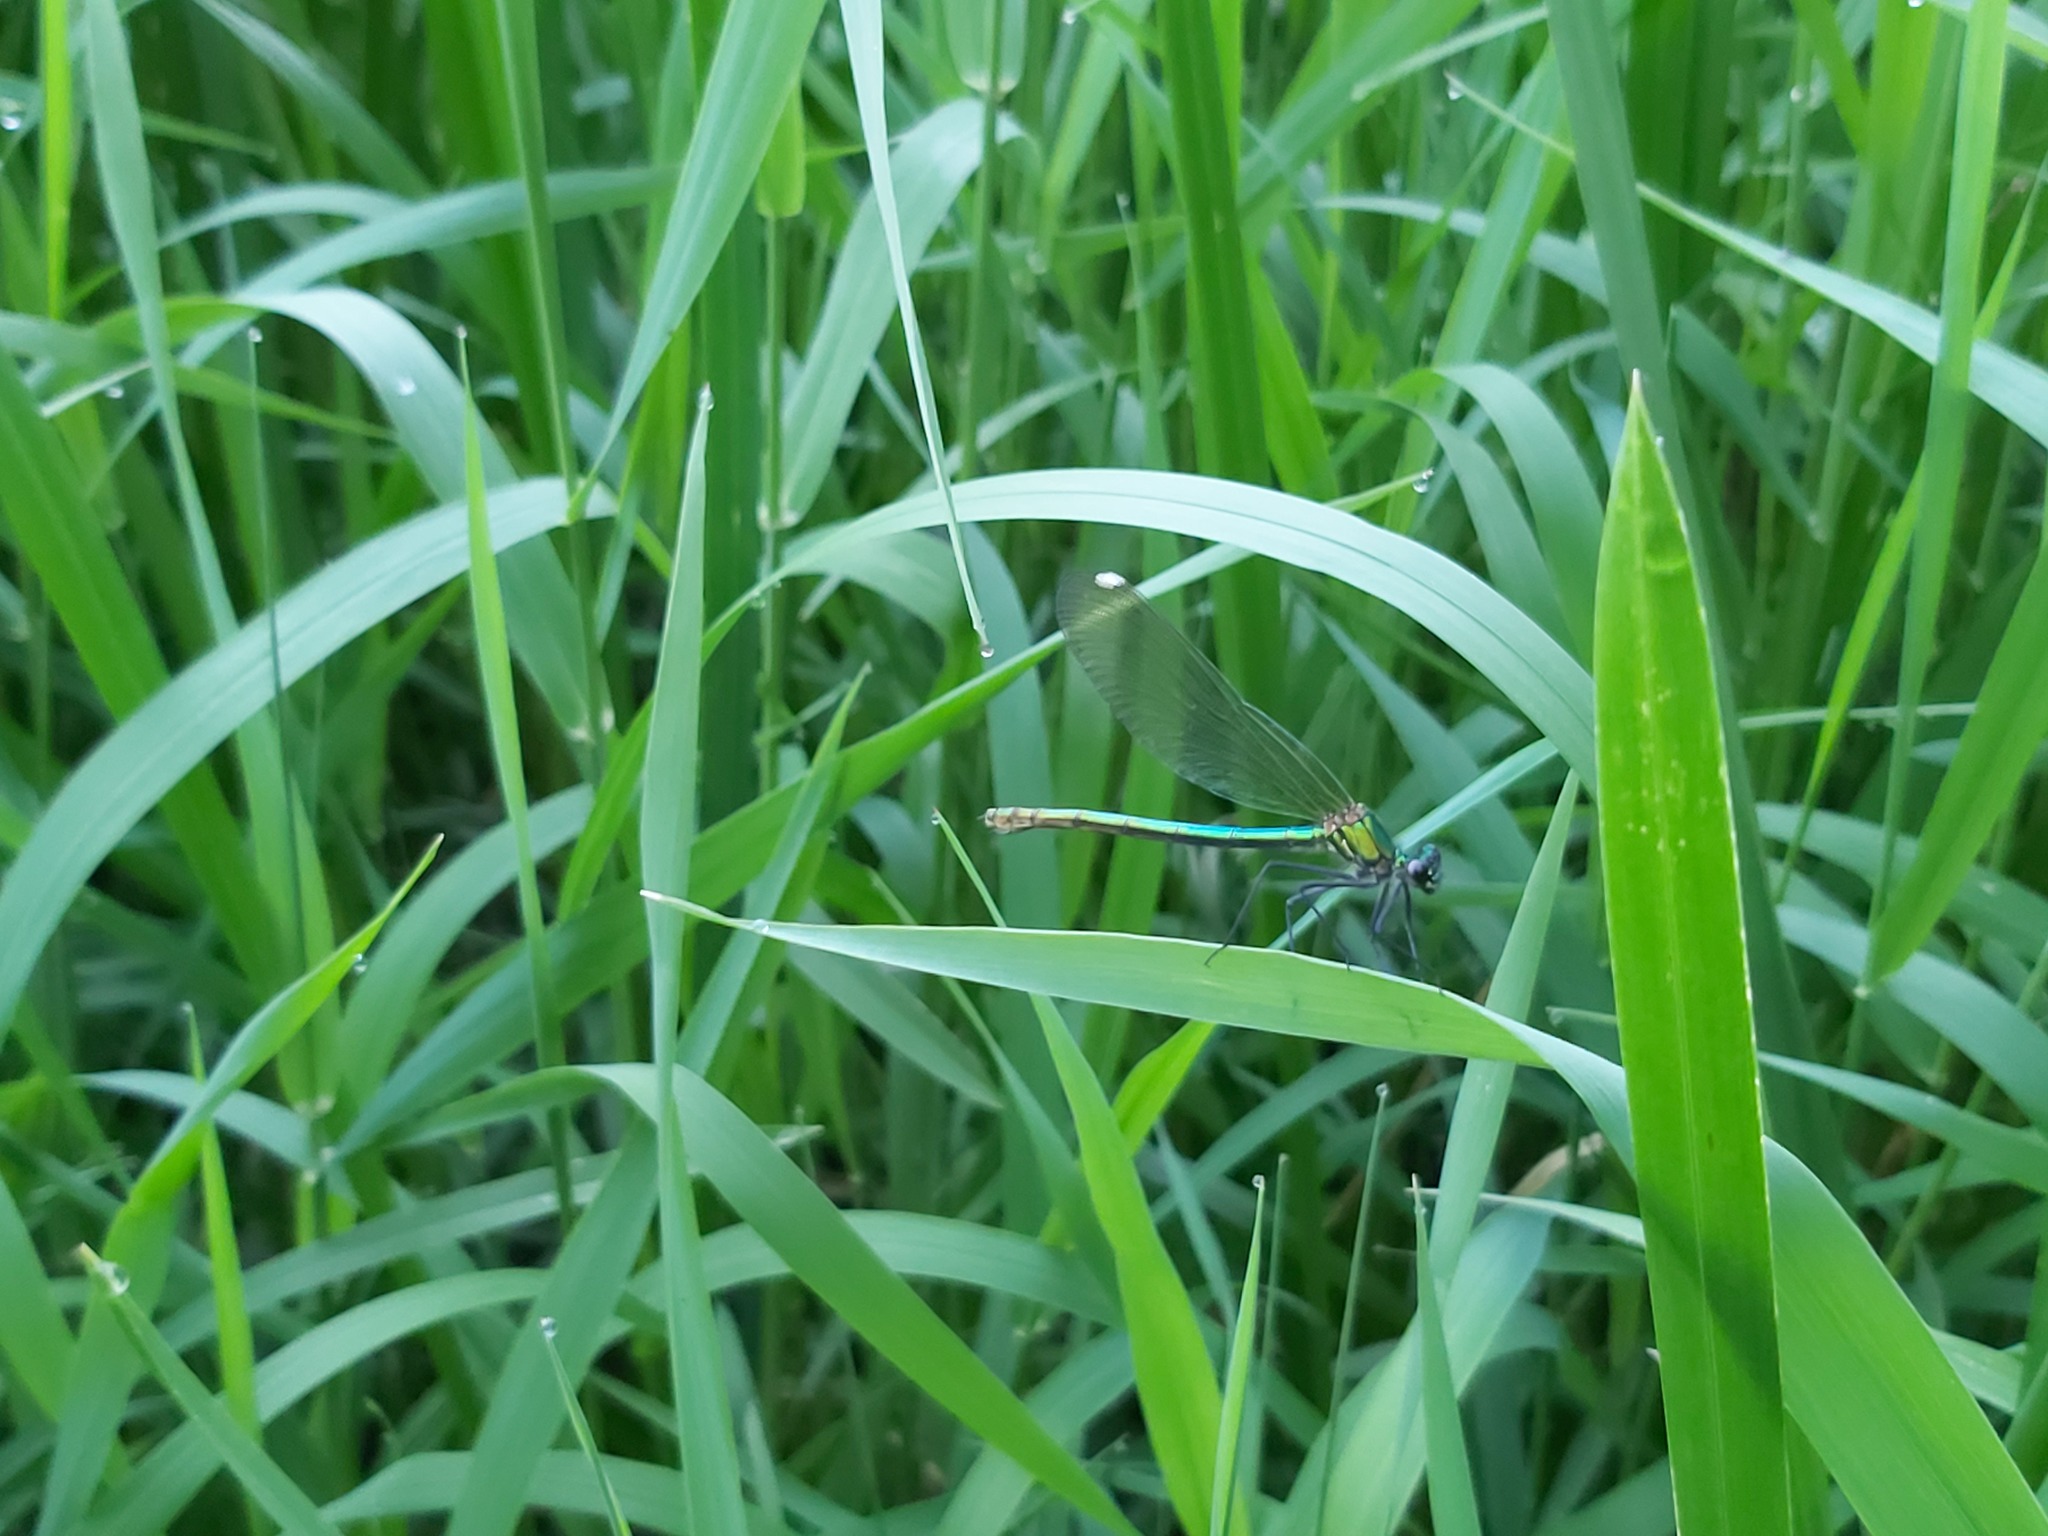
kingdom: Animalia
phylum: Arthropoda
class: Insecta
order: Odonata
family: Calopterygidae
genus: Calopteryx
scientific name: Calopteryx splendens
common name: Banded demoiselle
